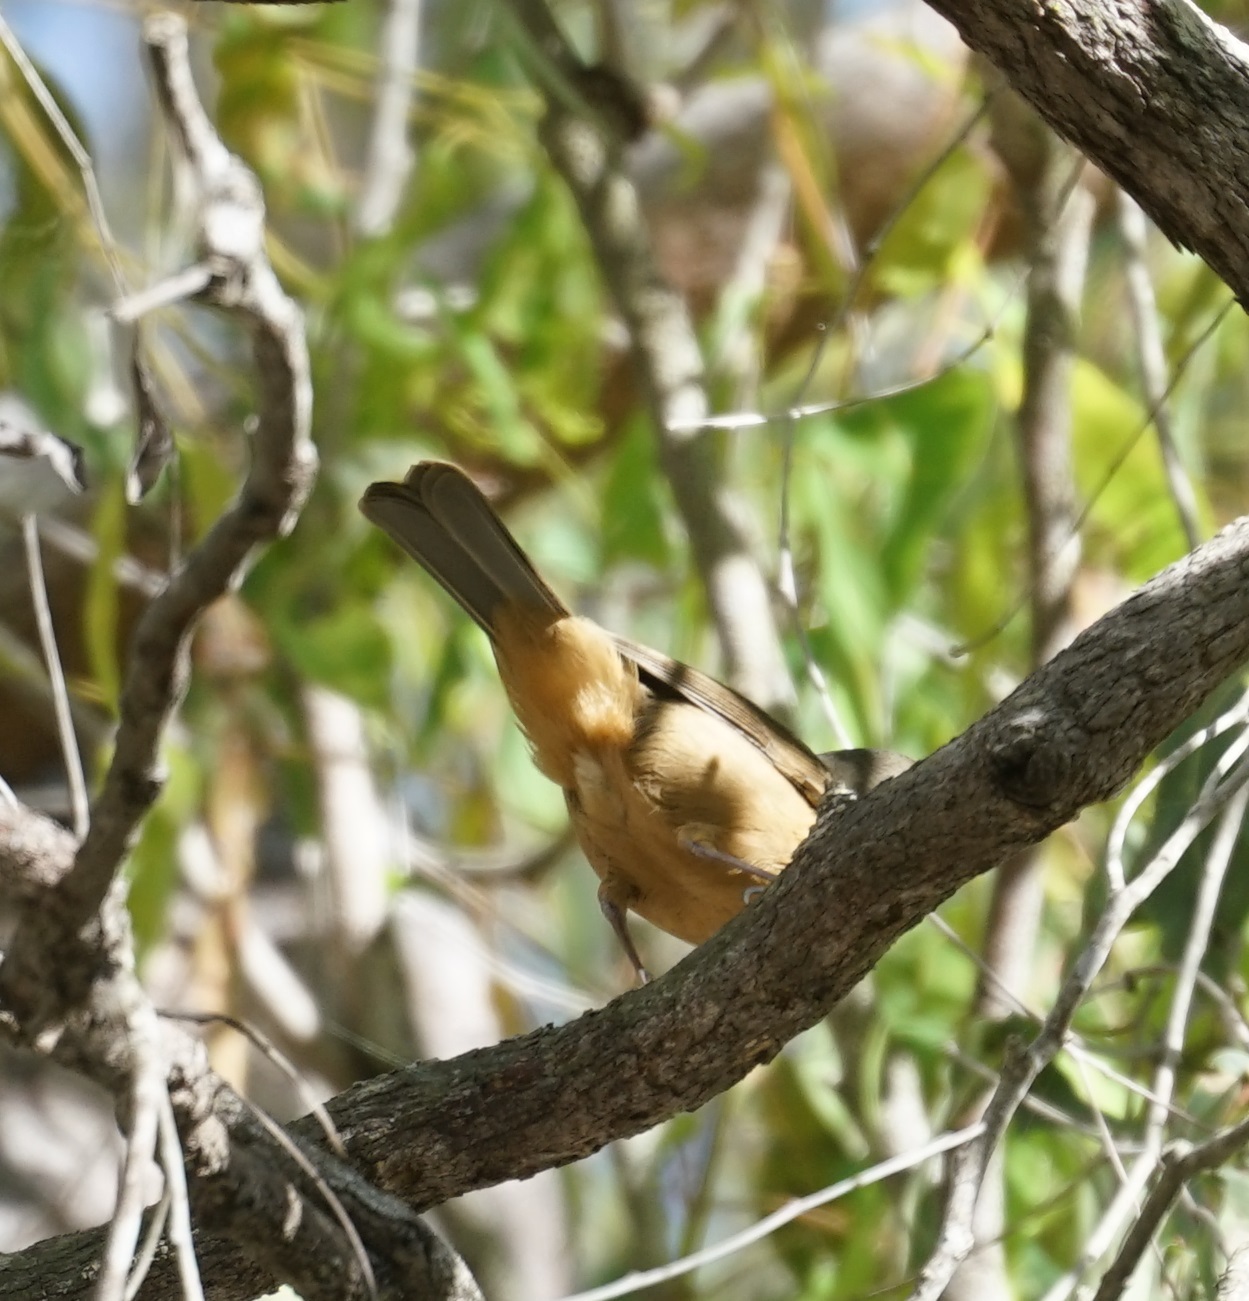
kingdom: Animalia
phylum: Chordata
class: Aves
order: Passeriformes
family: Pachycephalidae
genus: Colluricincla
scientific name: Colluricincla rufogaster
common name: Rufous shrikethrush
